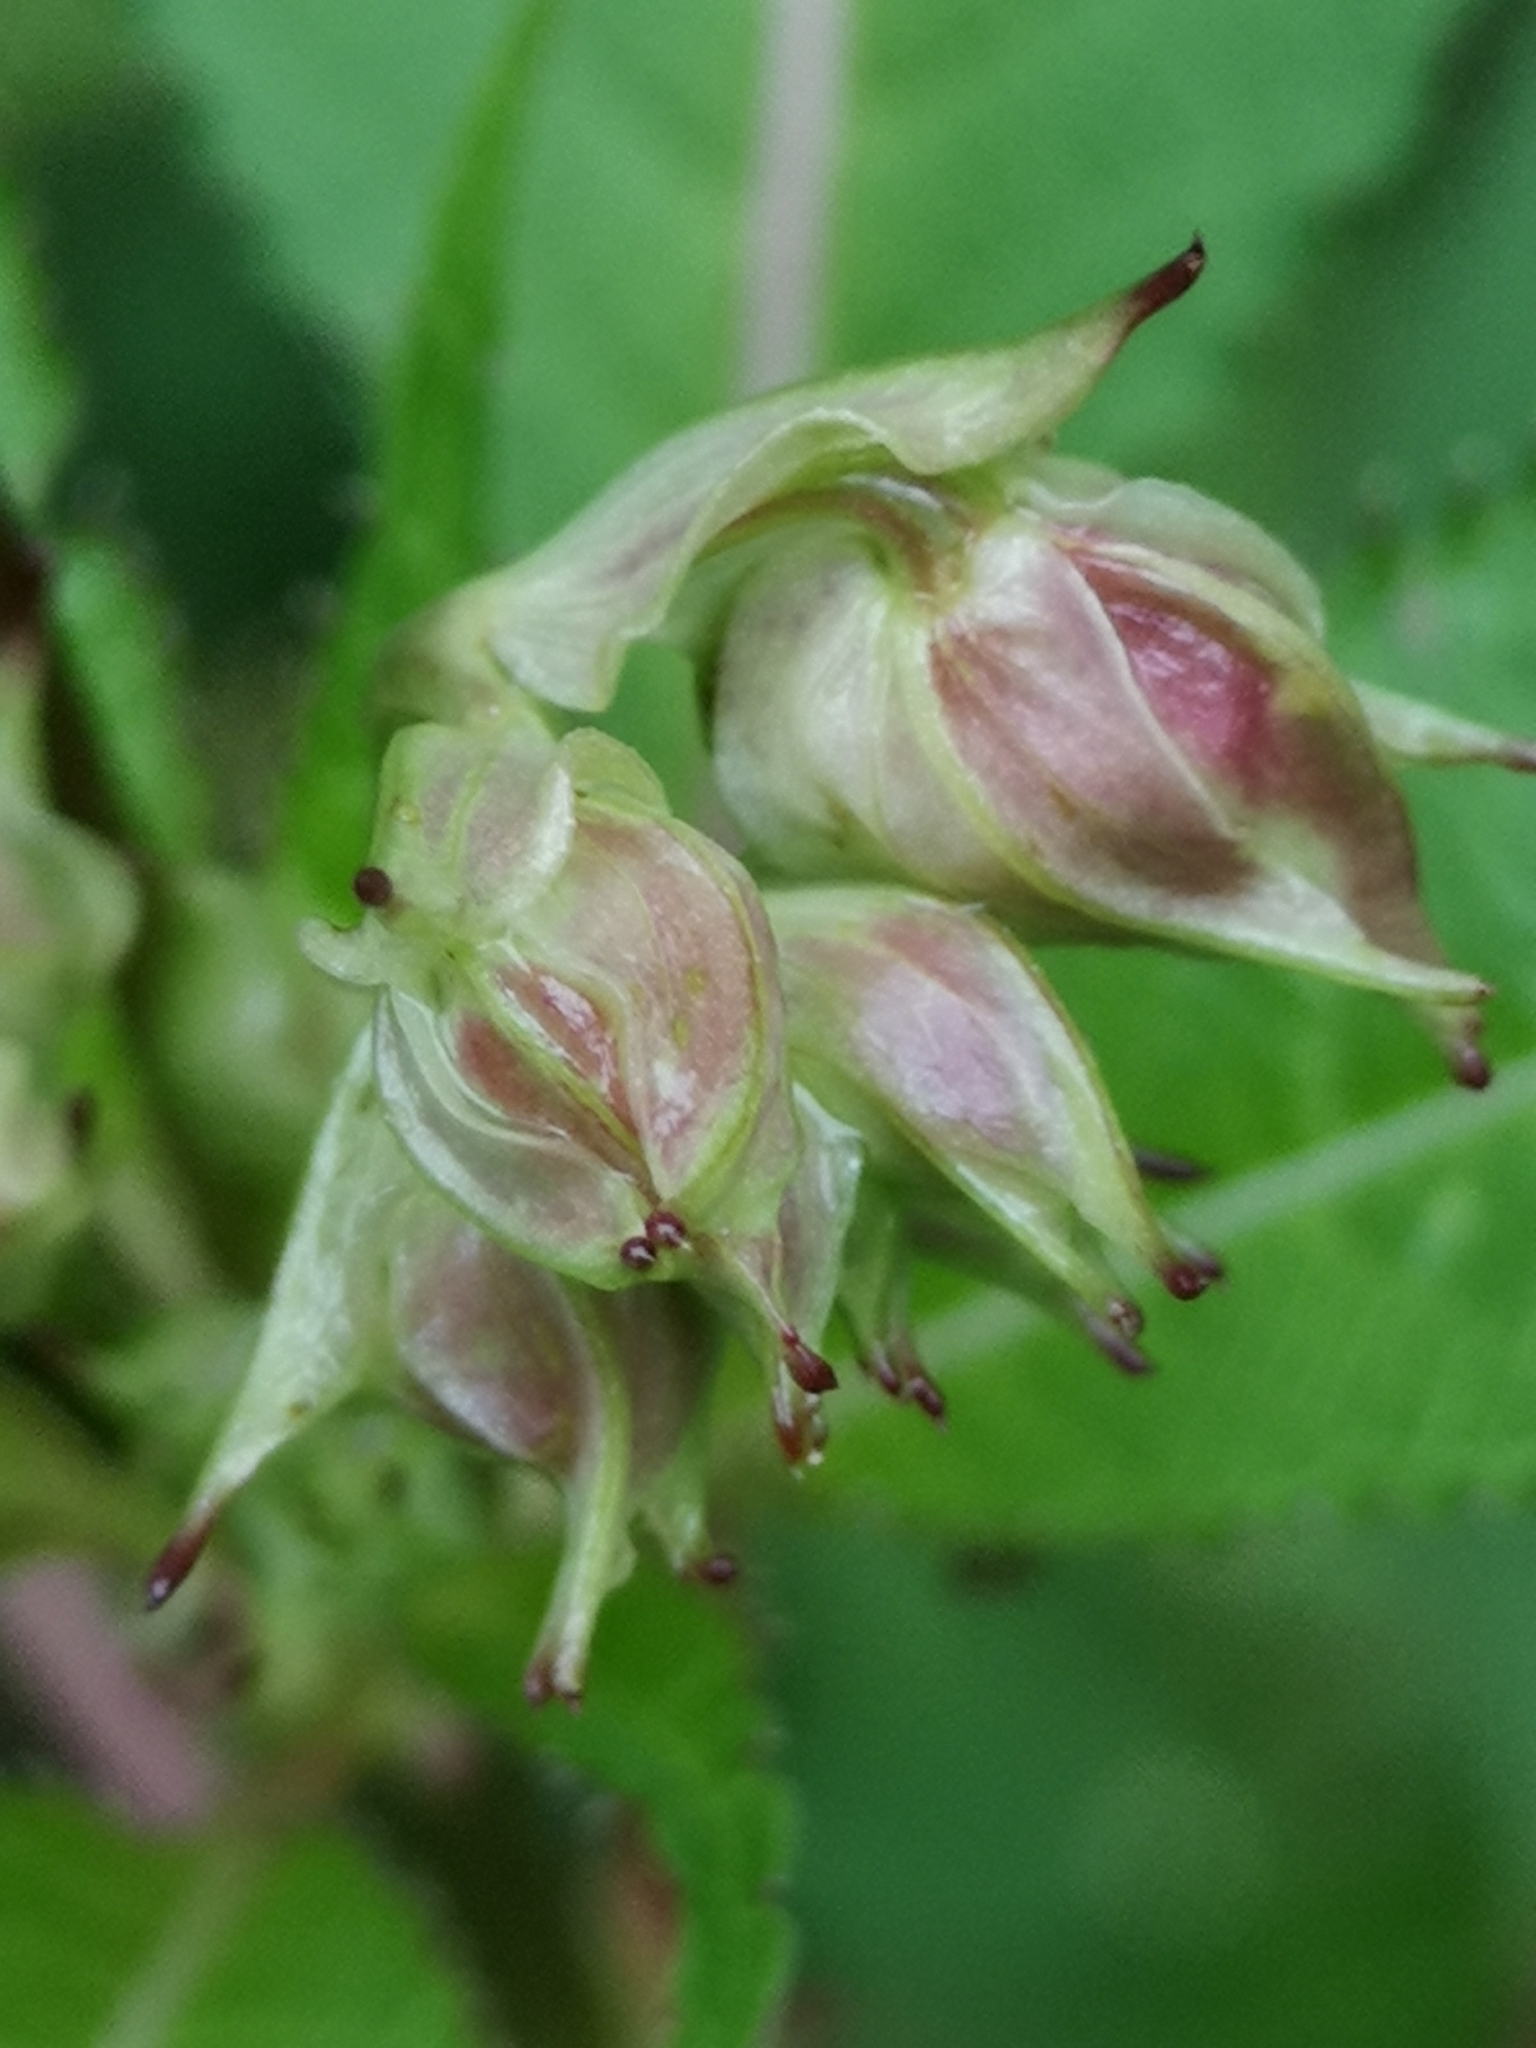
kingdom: Plantae
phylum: Tracheophyta
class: Magnoliopsida
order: Ericales
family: Balsaminaceae
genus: Impatiens
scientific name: Impatiens glandulifera
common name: Himalayan balsam
